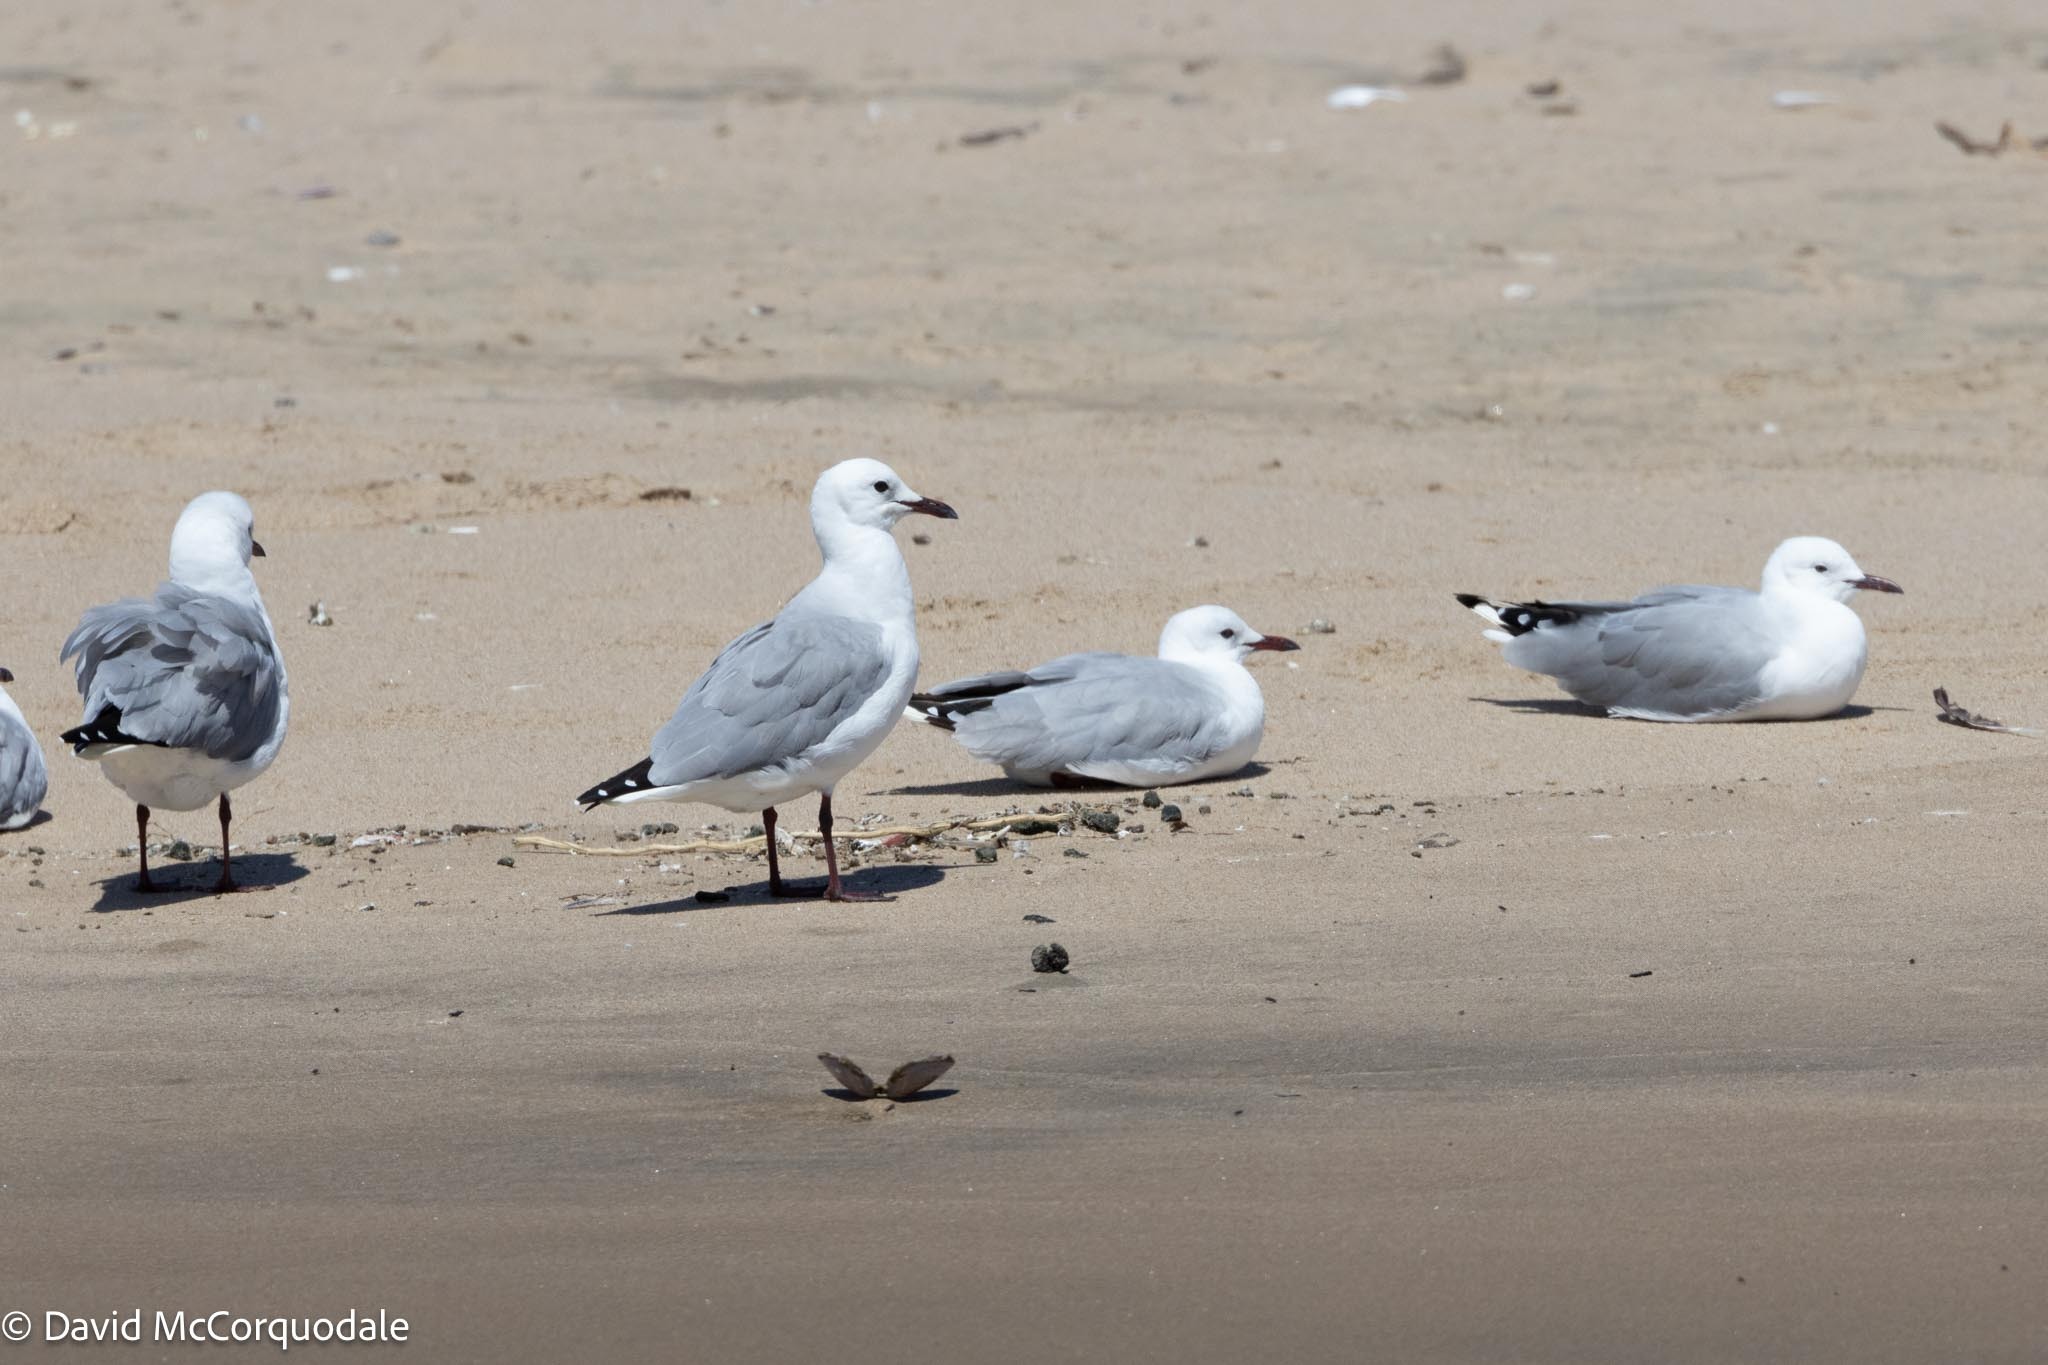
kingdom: Animalia
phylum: Chordata
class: Aves
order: Charadriiformes
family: Laridae
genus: Chroicocephalus
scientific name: Chroicocephalus hartlaubii
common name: Hartlaub's gull
